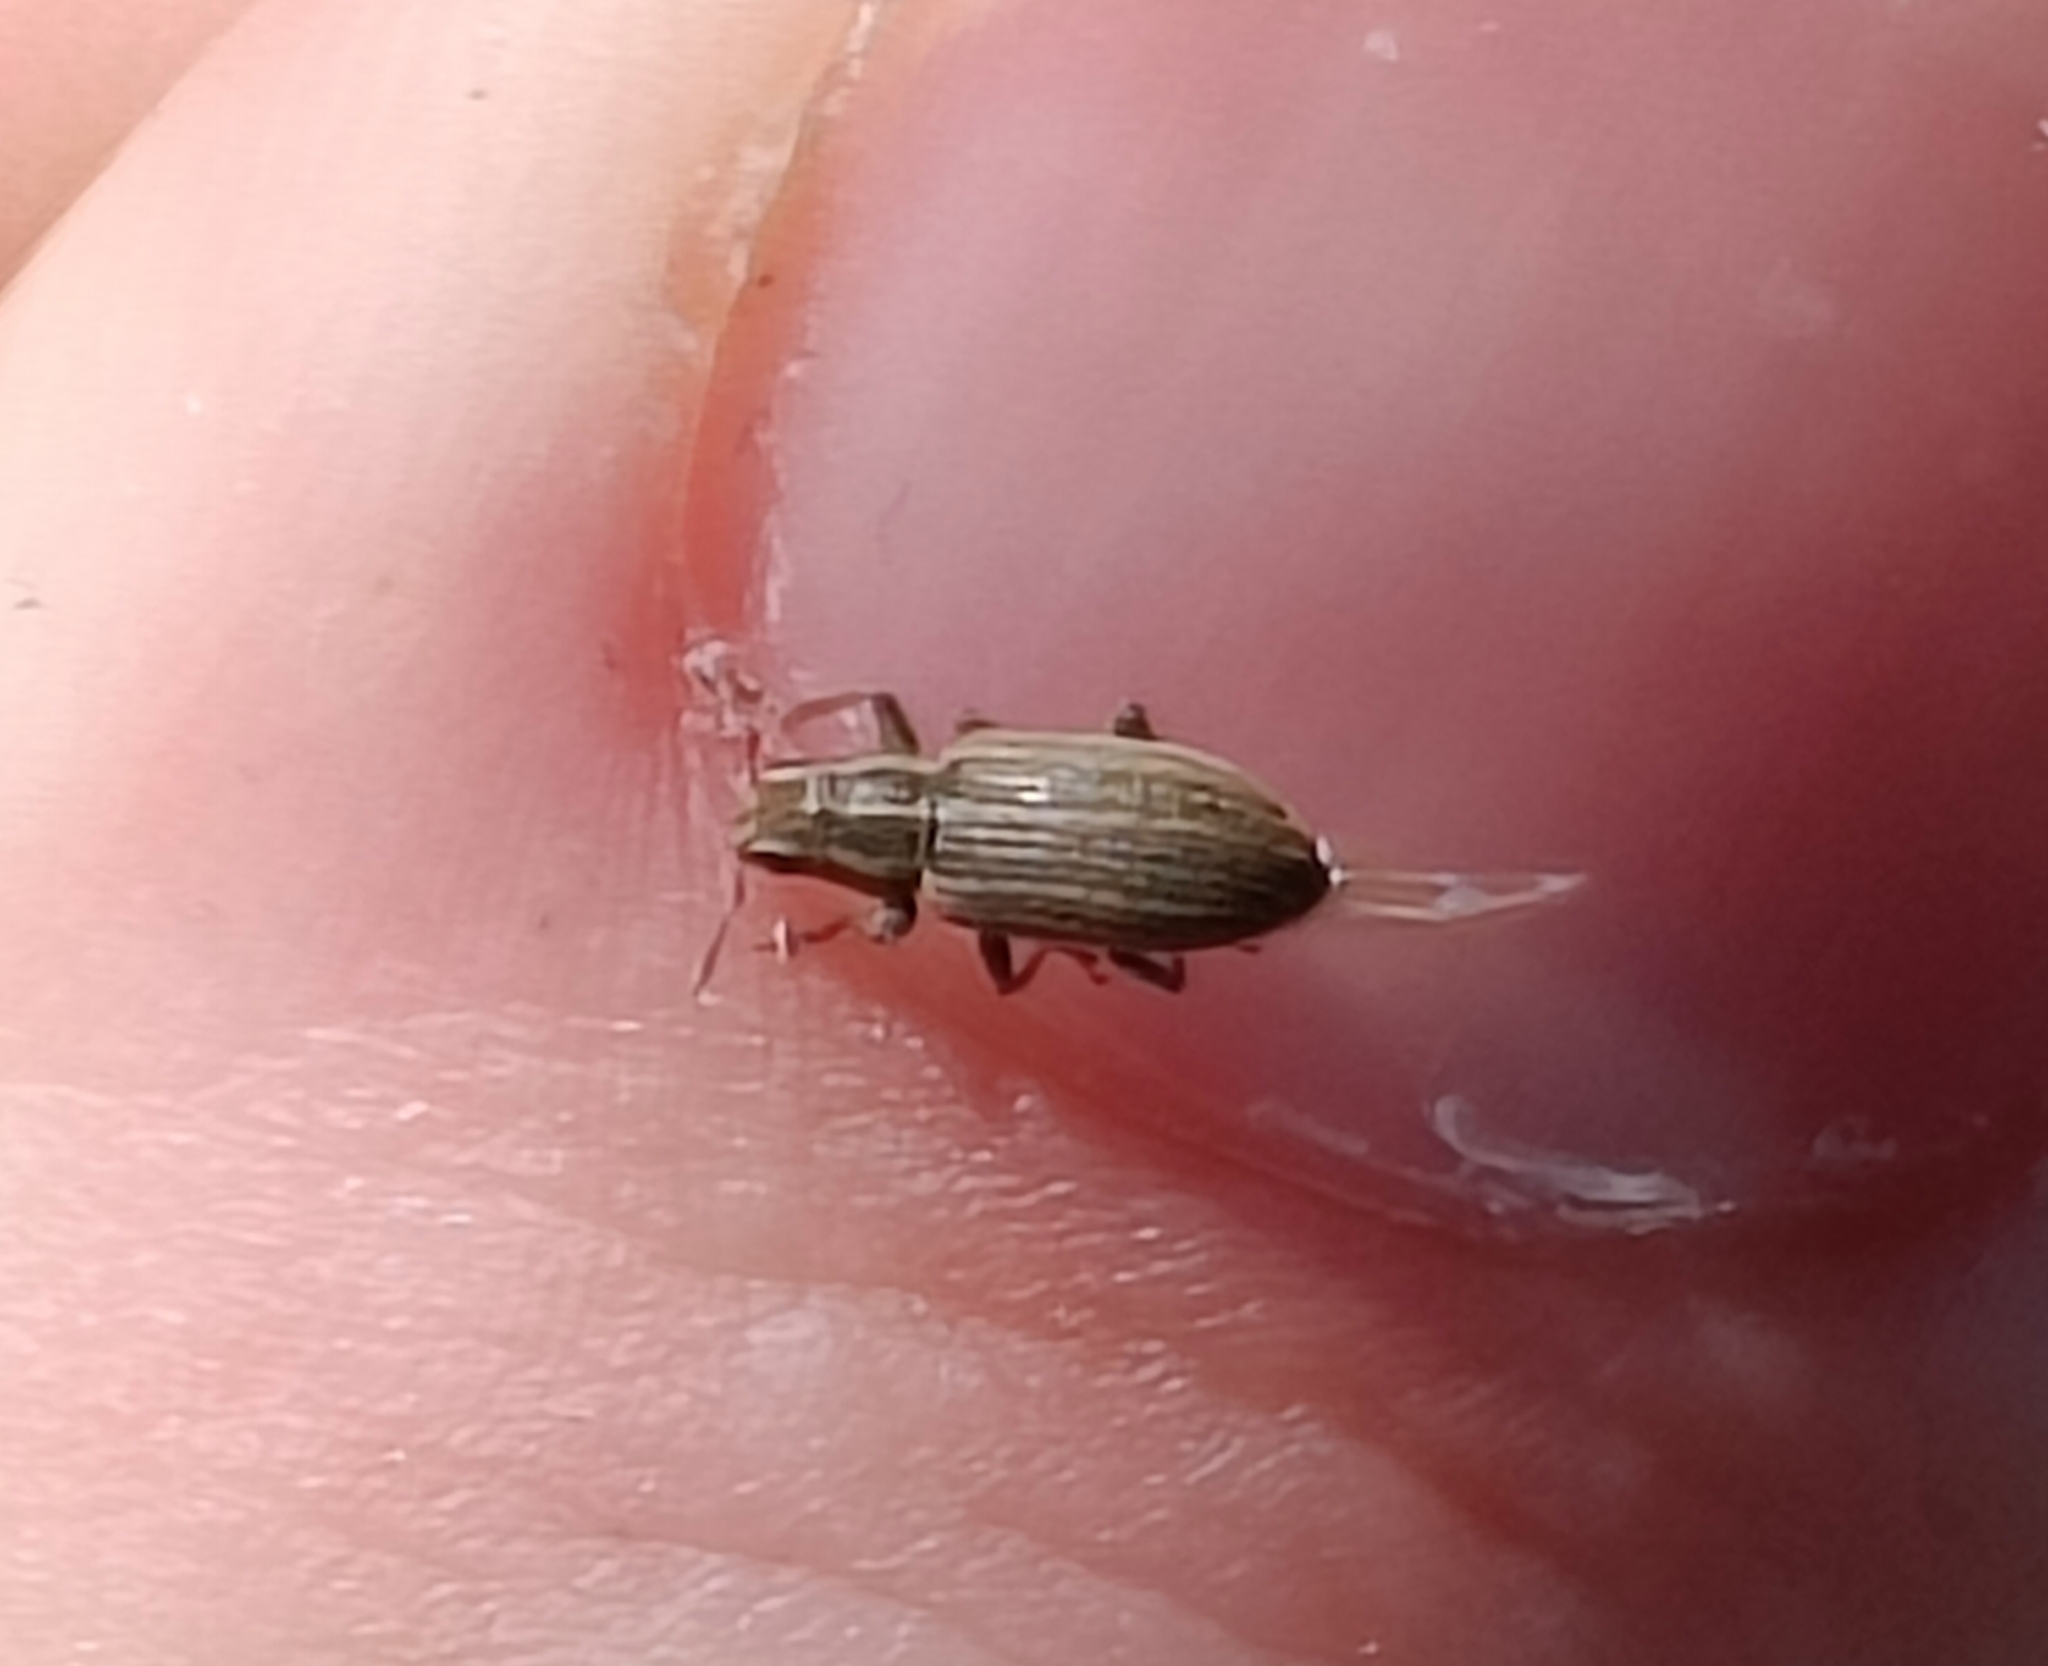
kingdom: Animalia
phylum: Arthropoda
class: Insecta
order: Coleoptera
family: Curculionidae
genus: Sitona
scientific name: Sitona lineatus
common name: Weevil
